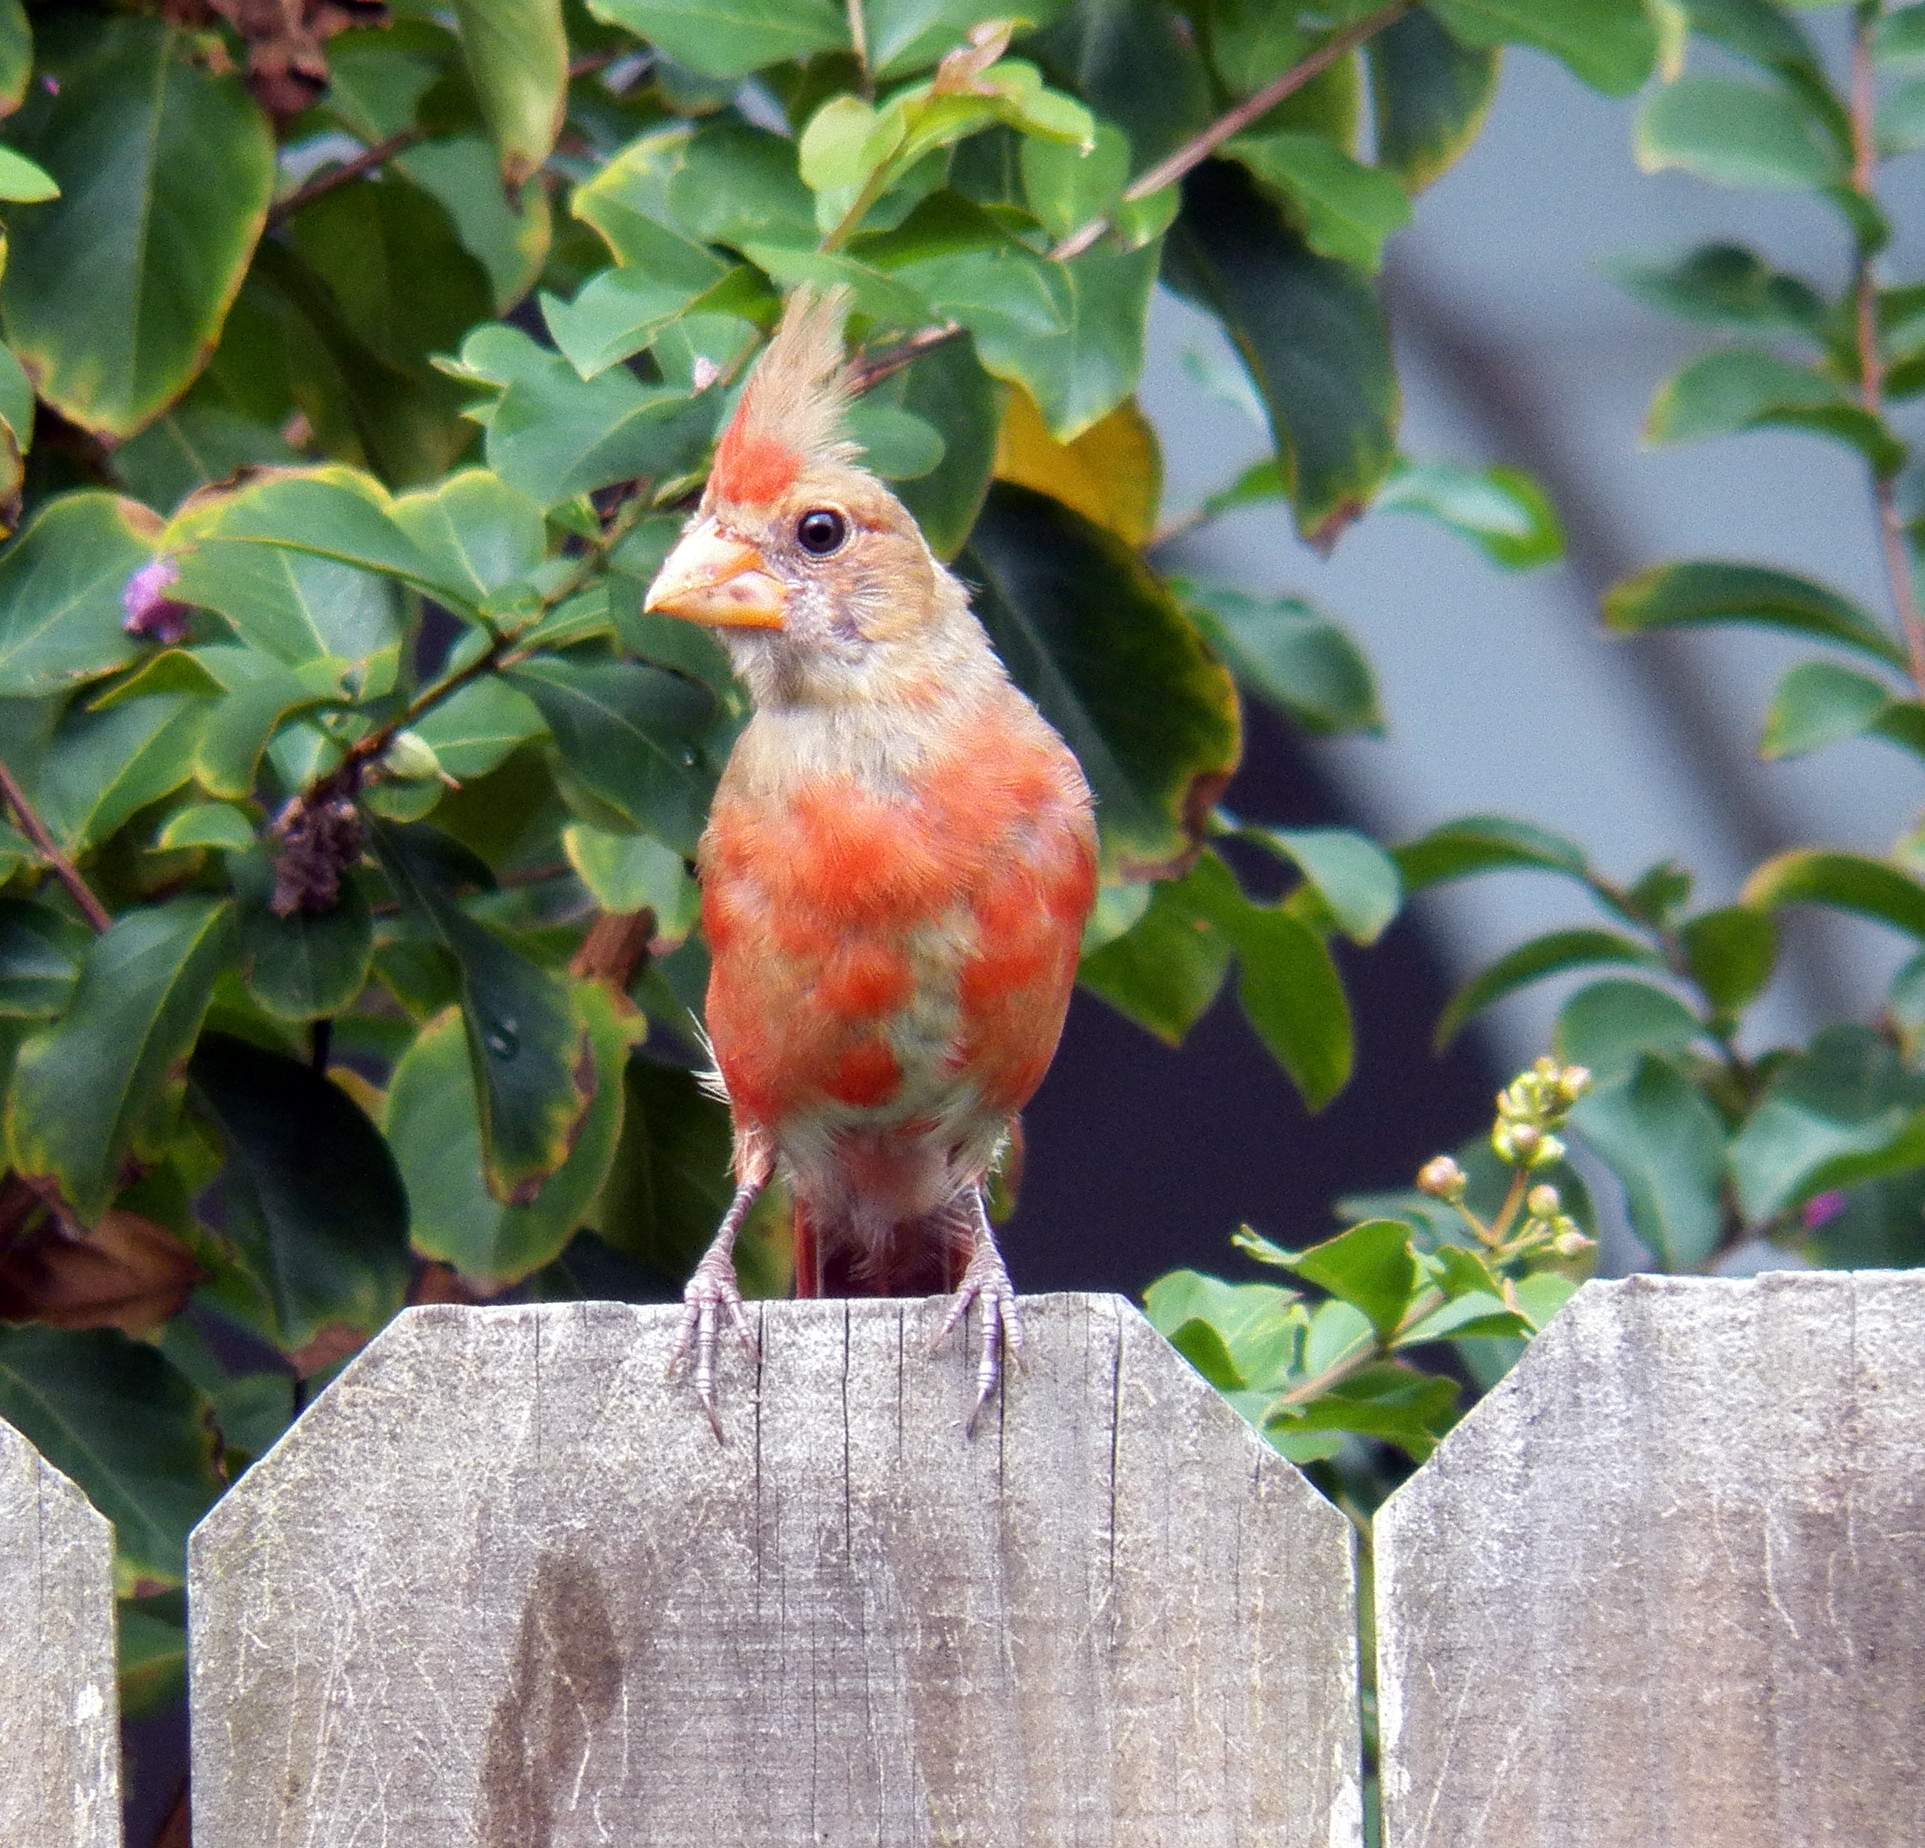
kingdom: Animalia
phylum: Chordata
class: Aves
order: Passeriformes
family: Cardinalidae
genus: Cardinalis
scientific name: Cardinalis cardinalis
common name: Northern cardinal
